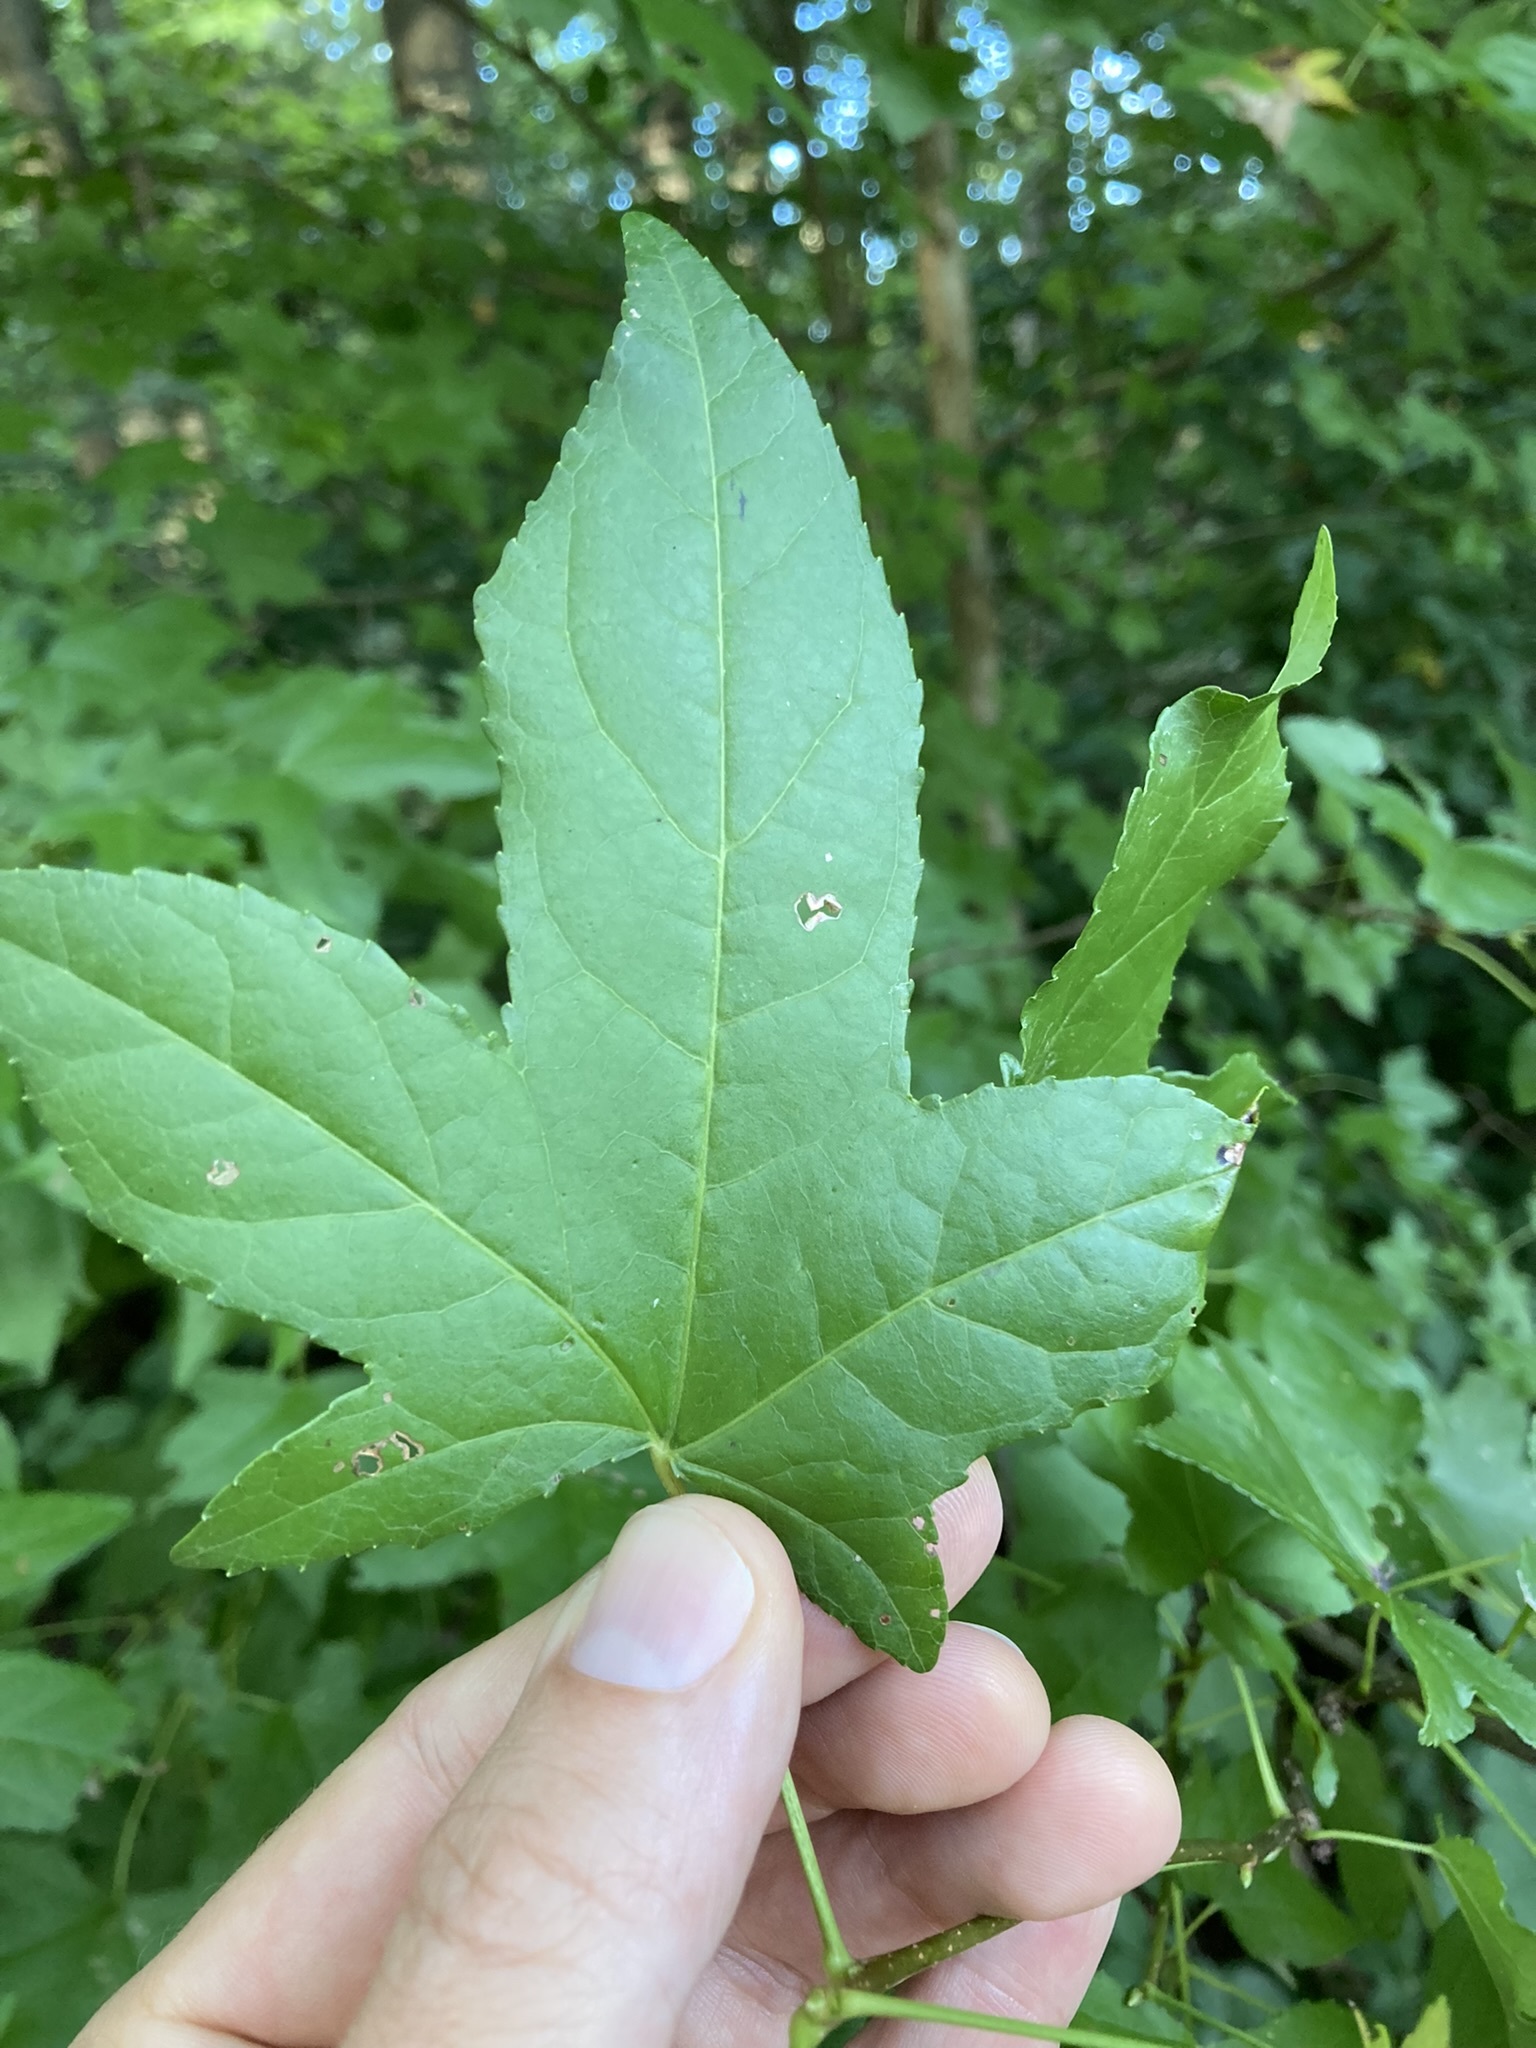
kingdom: Plantae
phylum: Tracheophyta
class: Magnoliopsida
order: Saxifragales
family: Altingiaceae
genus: Liquidambar
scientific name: Liquidambar styraciflua
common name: Sweet gum
